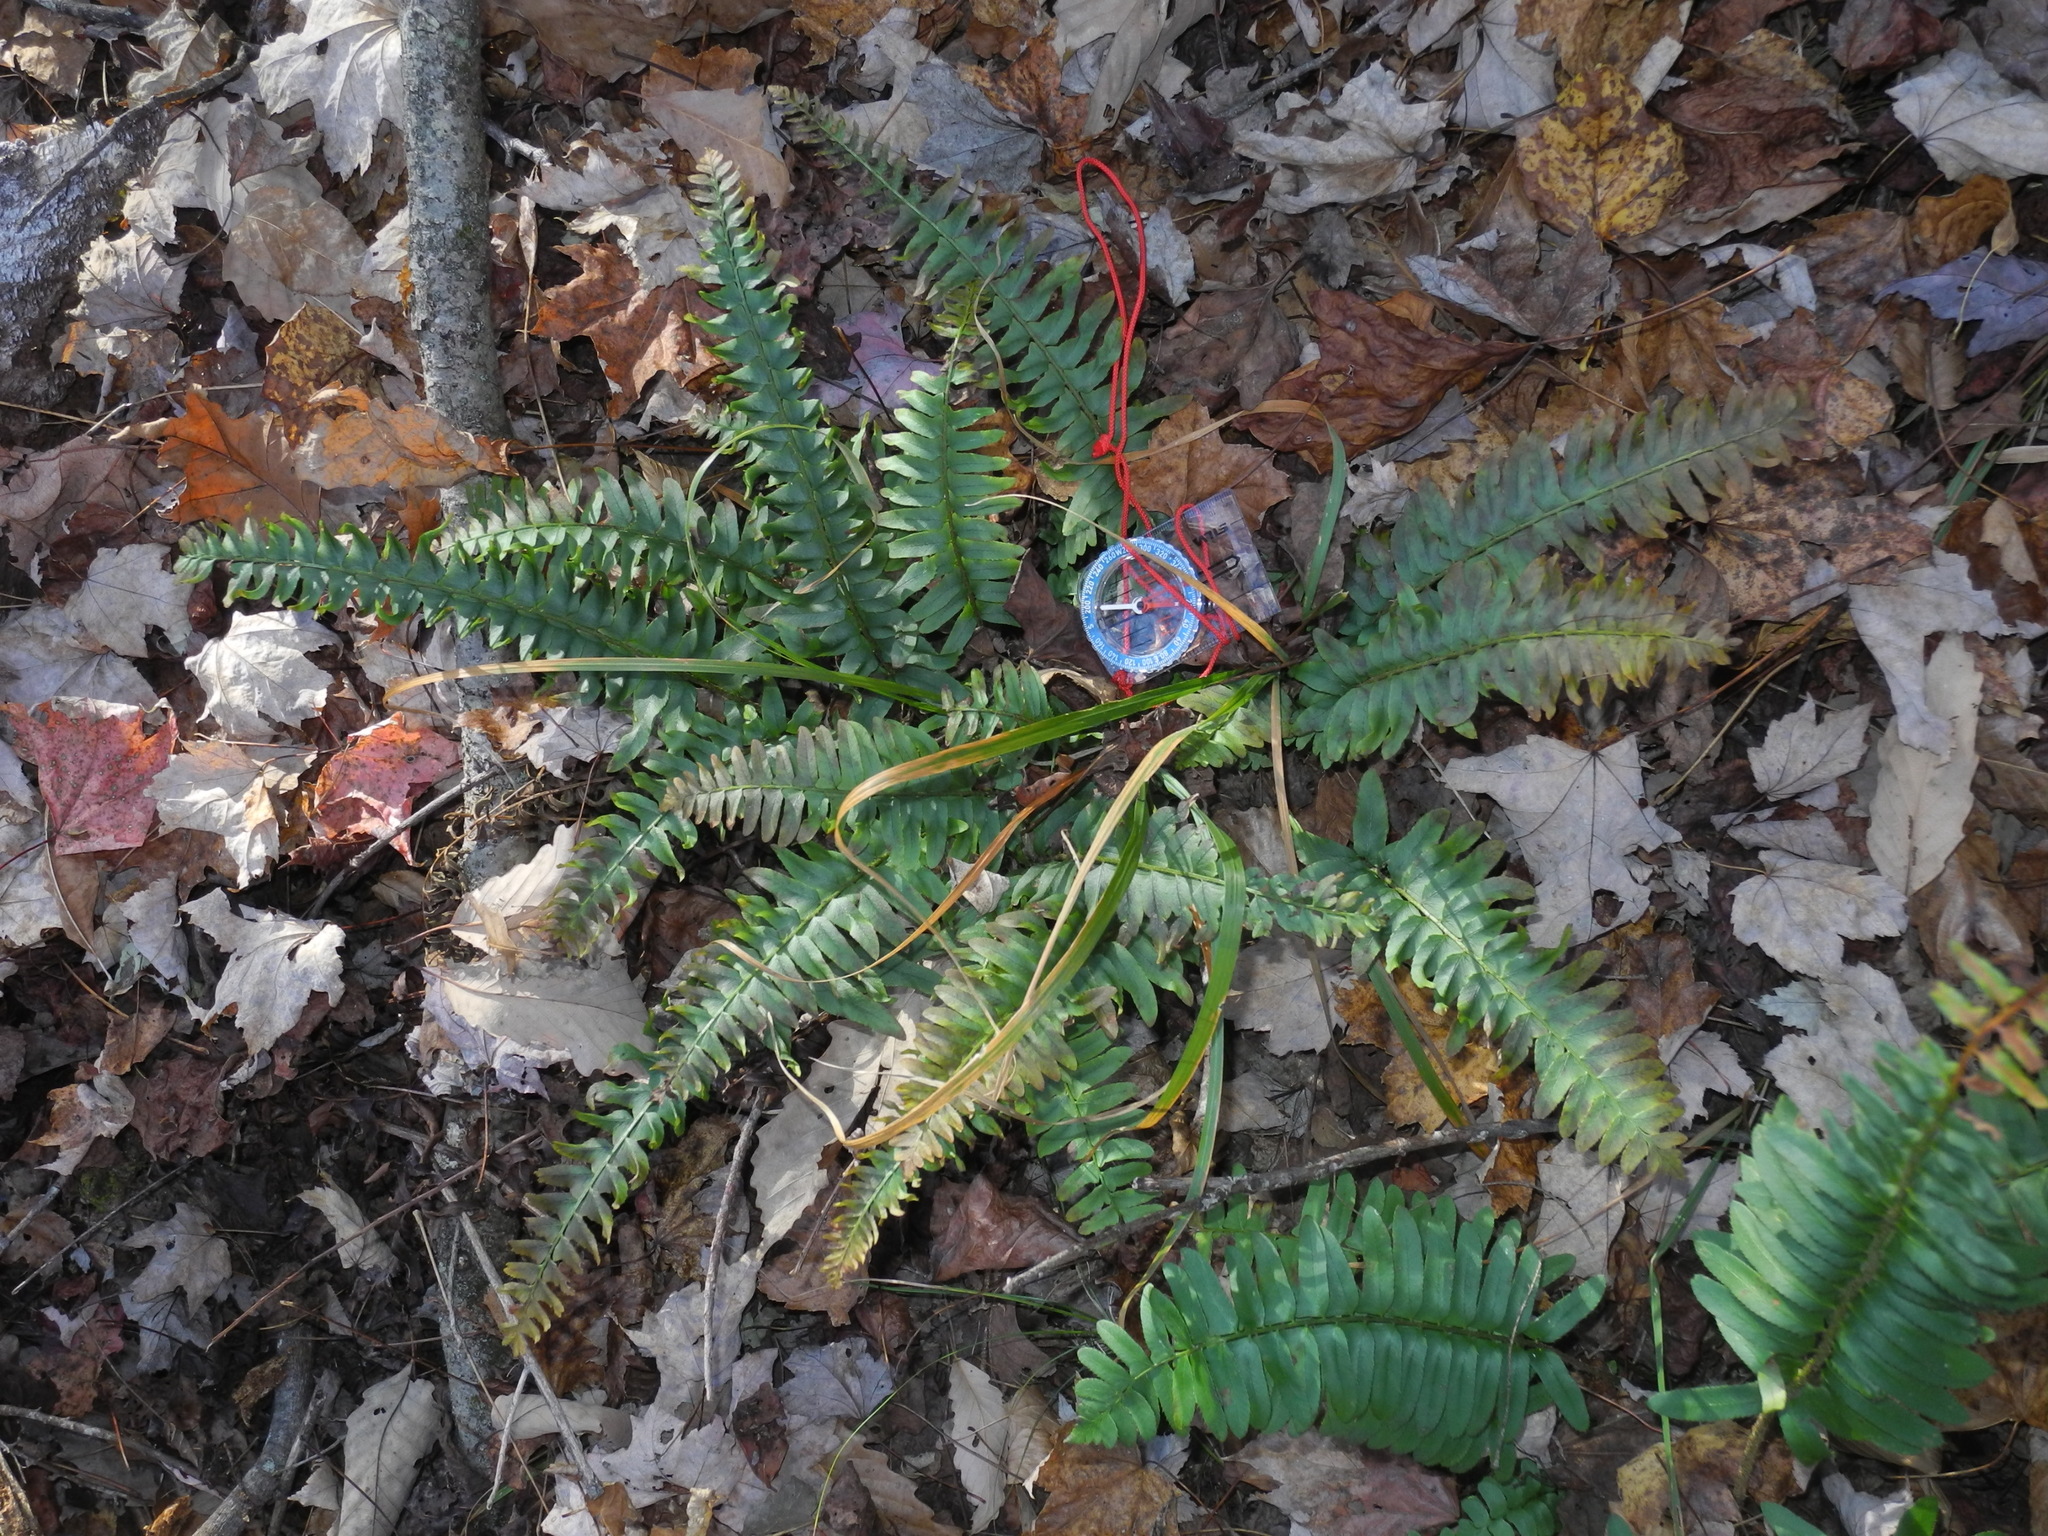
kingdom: Plantae
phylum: Tracheophyta
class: Polypodiopsida
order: Polypodiales
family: Dryopteridaceae
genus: Polystichum
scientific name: Polystichum acrostichoides
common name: Christmas fern
